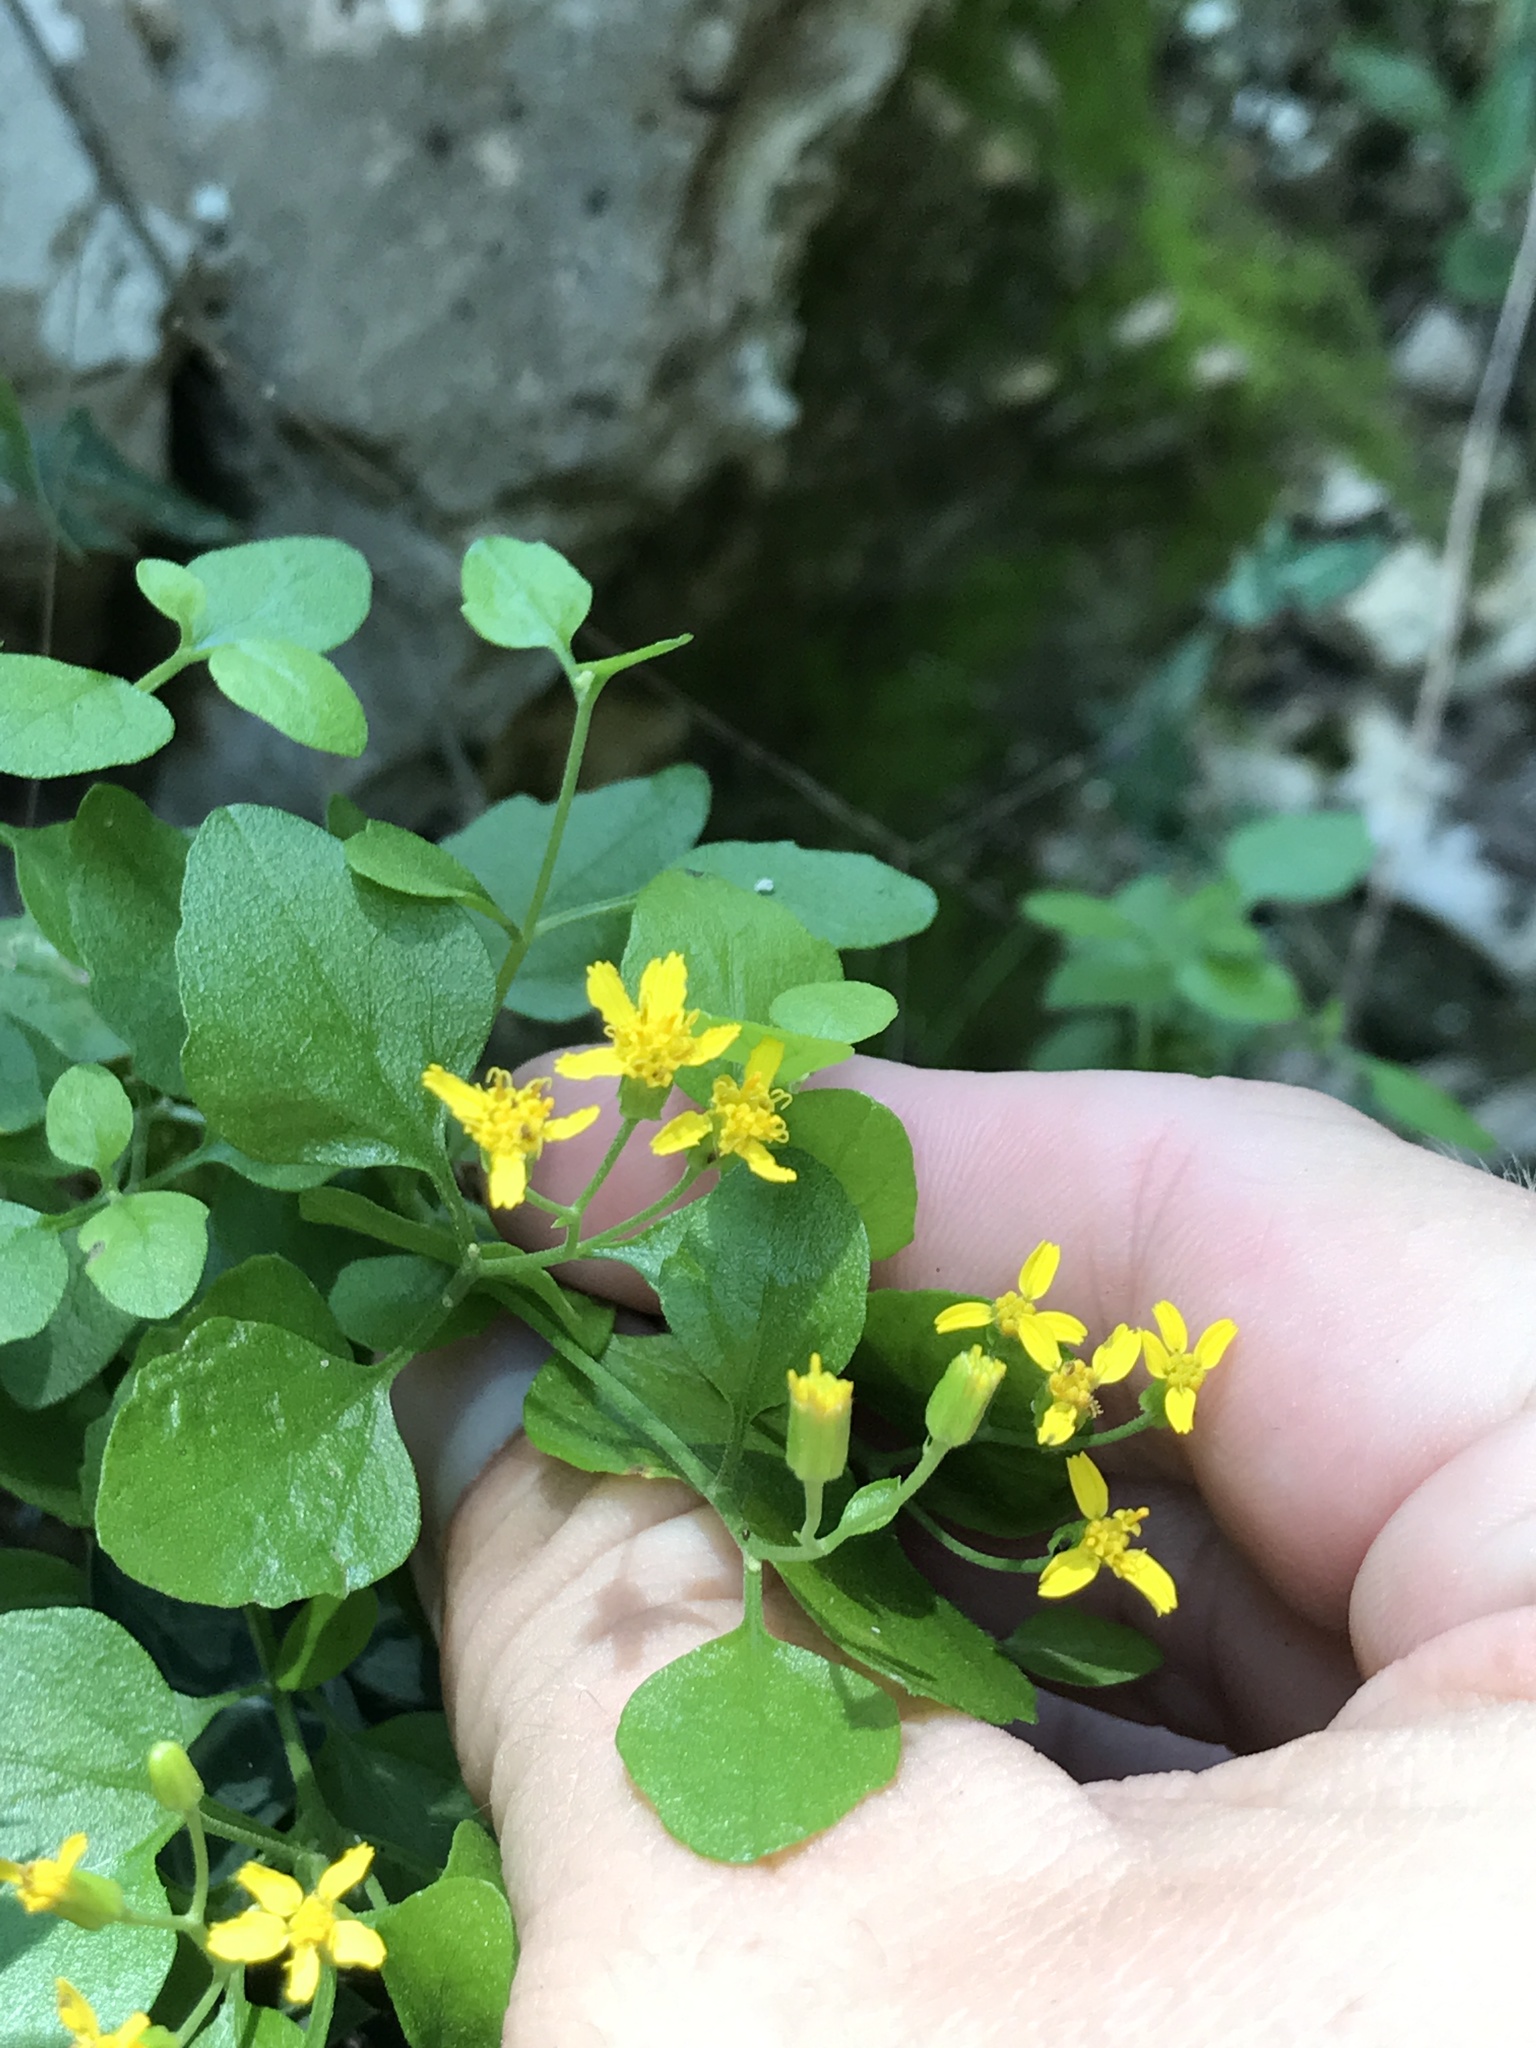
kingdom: Plantae
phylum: Tracheophyta
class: Magnoliopsida
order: Asterales
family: Asteraceae
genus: Laphamia
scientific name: Laphamia lindheimeri
